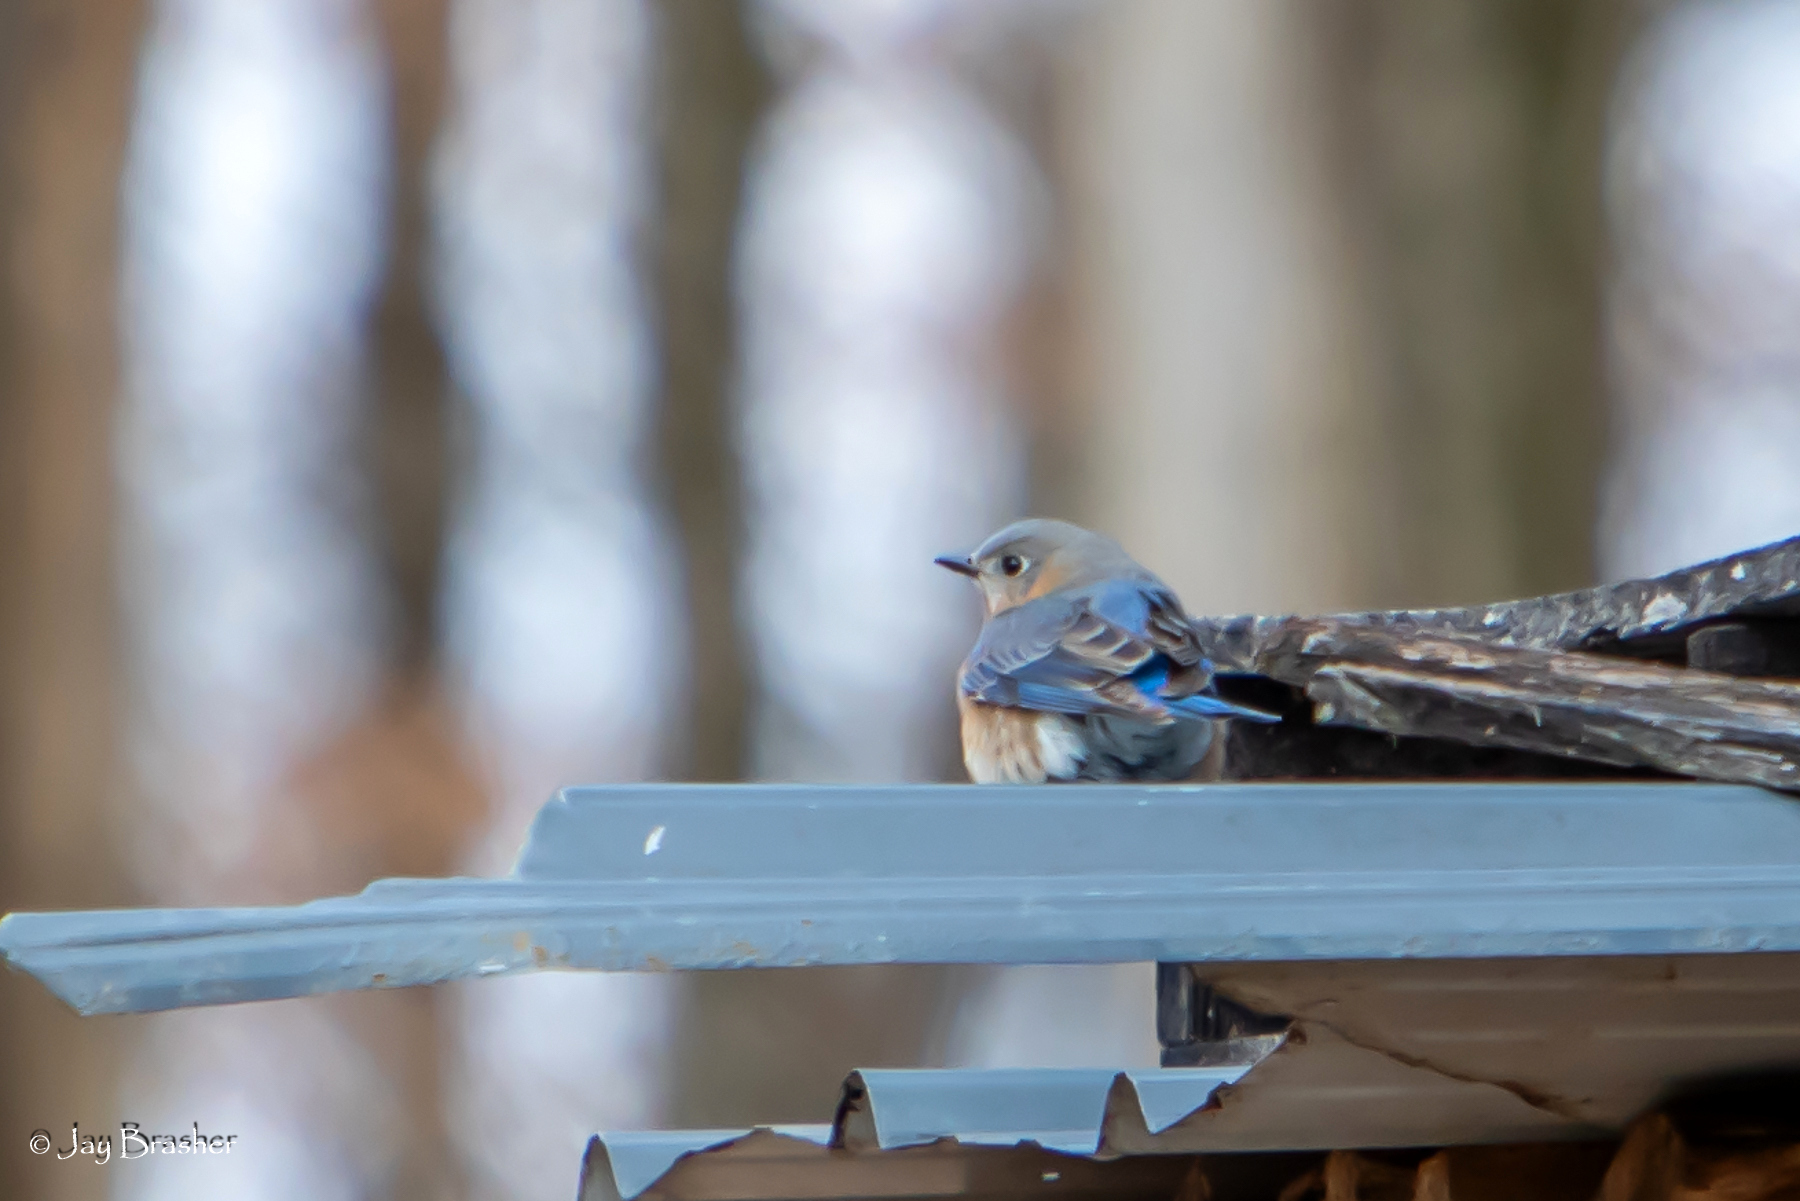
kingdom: Animalia
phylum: Chordata
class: Aves
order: Passeriformes
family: Turdidae
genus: Sialia
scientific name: Sialia sialis
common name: Eastern bluebird
